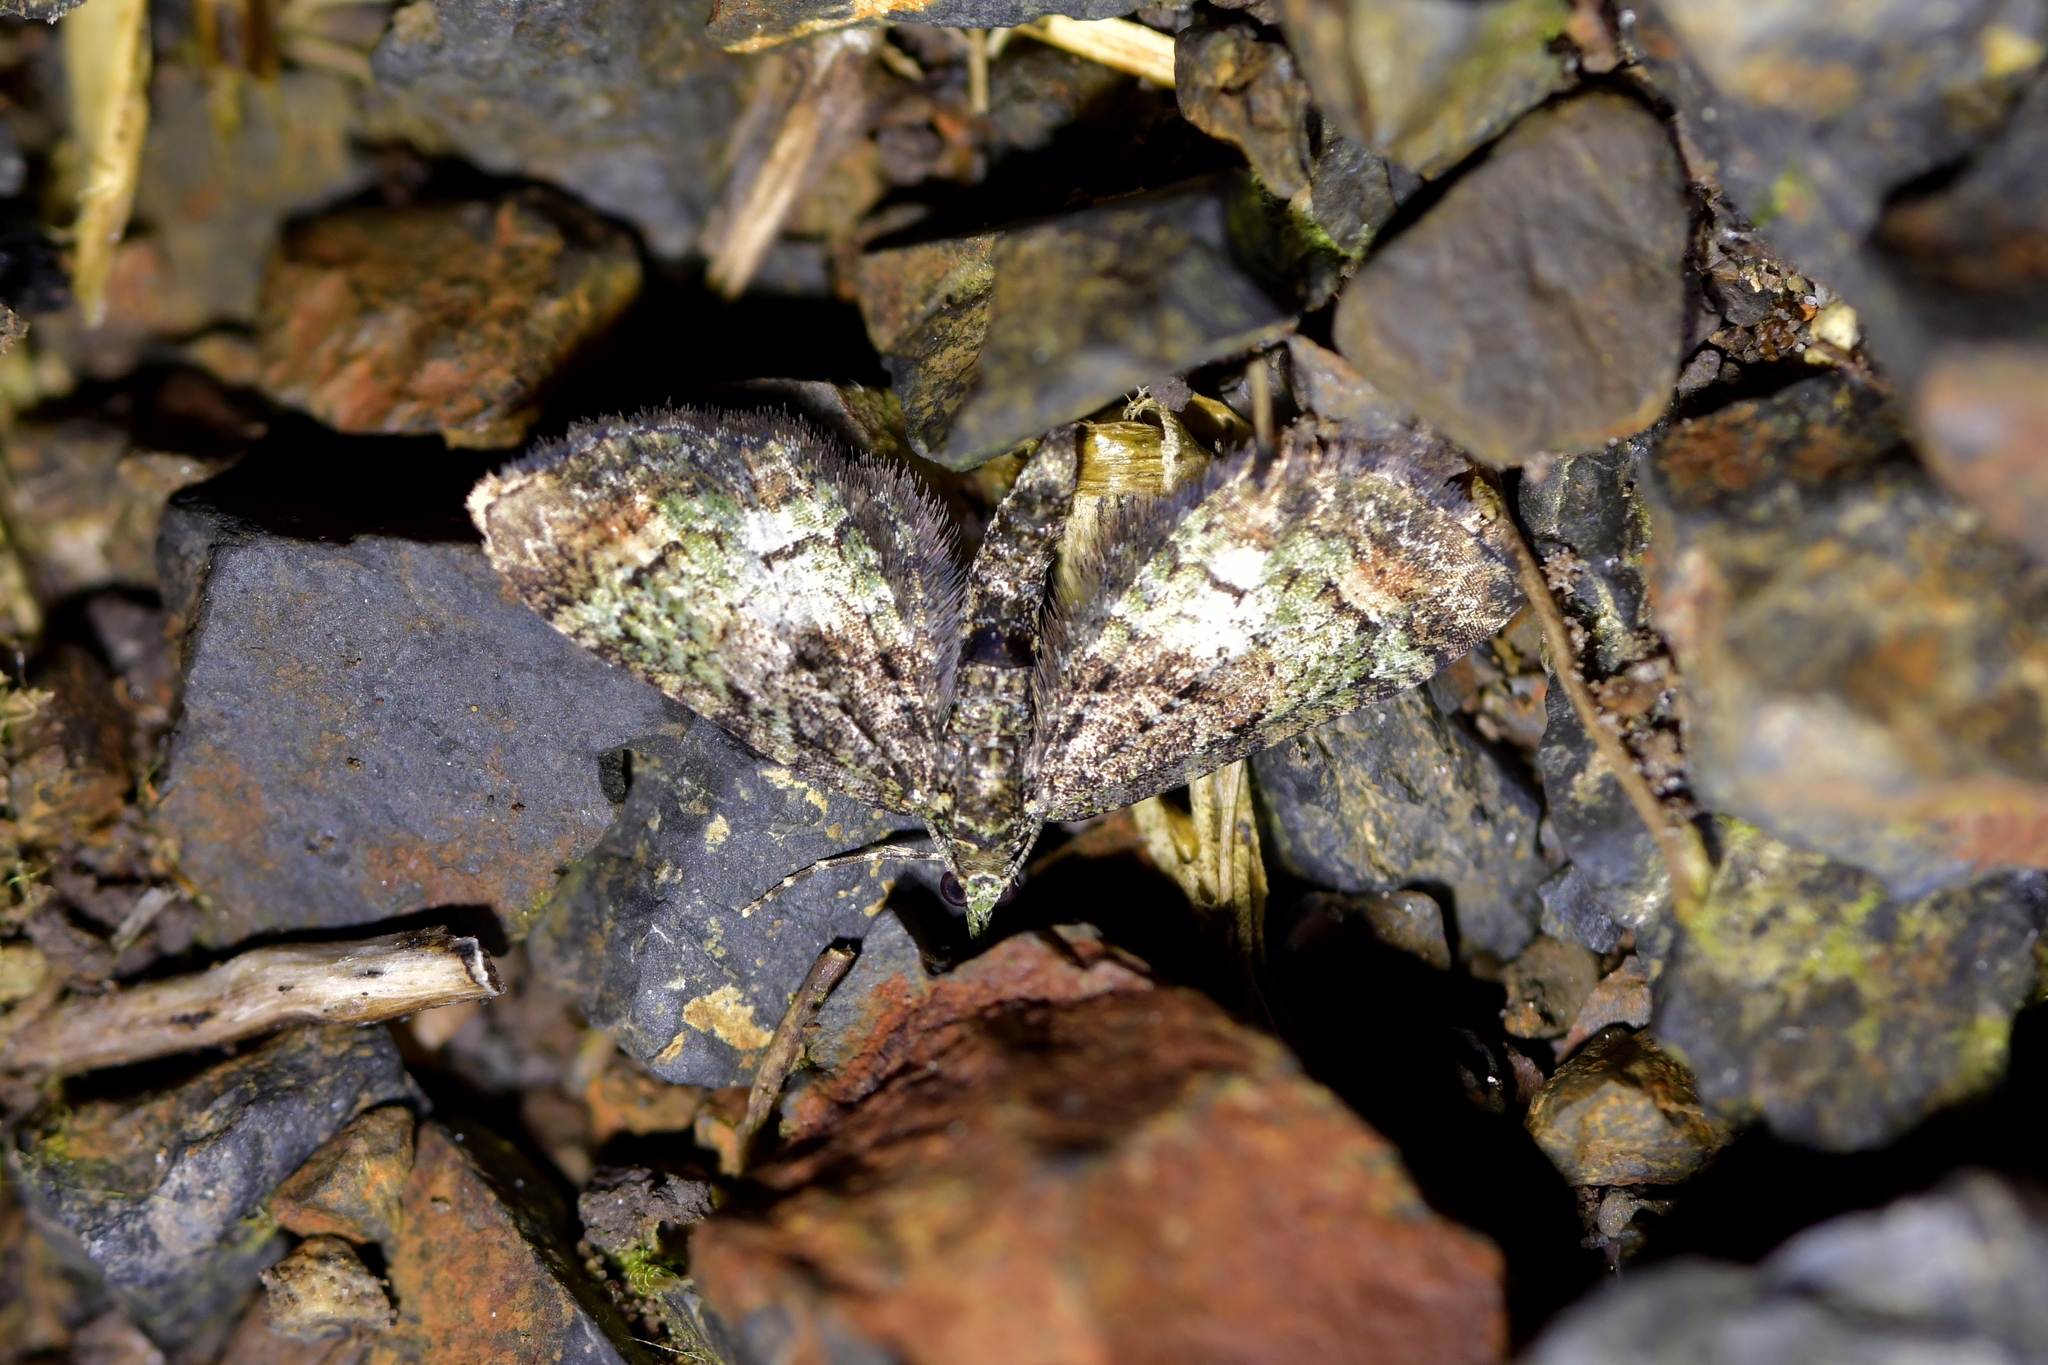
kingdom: Animalia
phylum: Arthropoda
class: Insecta
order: Lepidoptera
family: Geometridae
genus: Idaea
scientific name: Idaea mutanda
